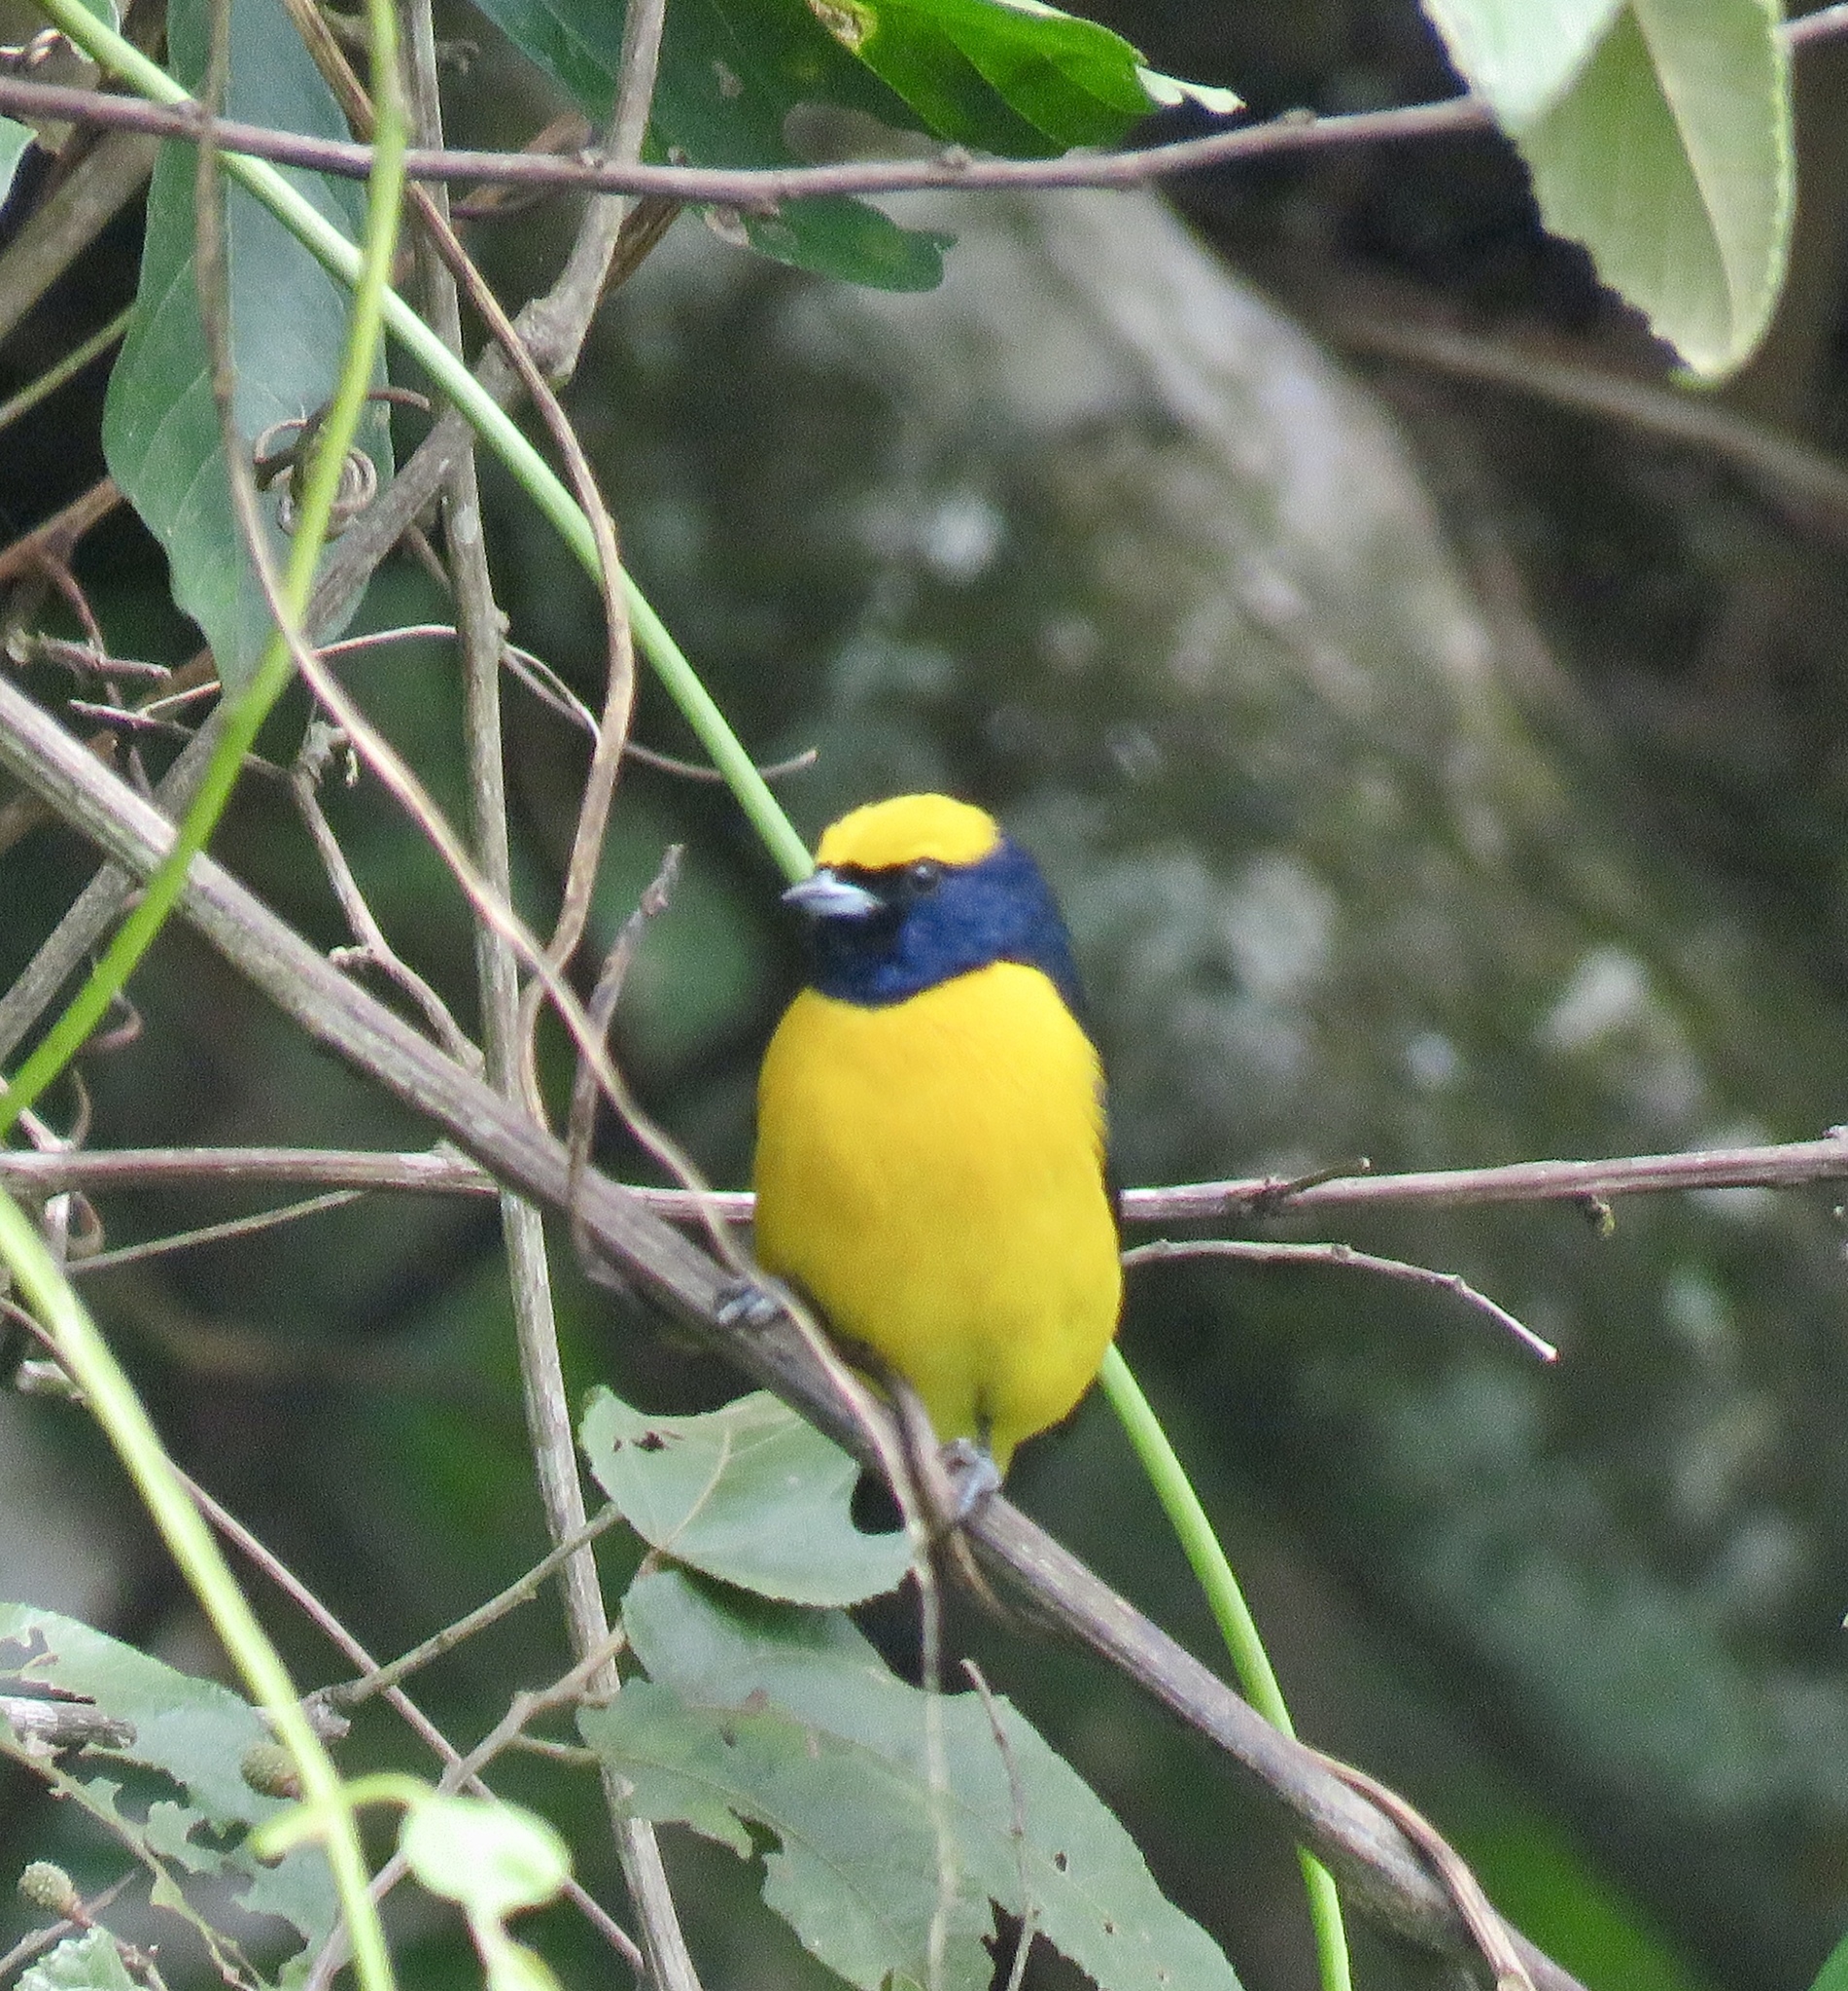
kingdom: Animalia
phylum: Chordata
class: Aves
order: Passeriformes
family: Fringillidae
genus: Euphonia
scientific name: Euphonia luteicapilla
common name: Yellow-crowned euphonia
